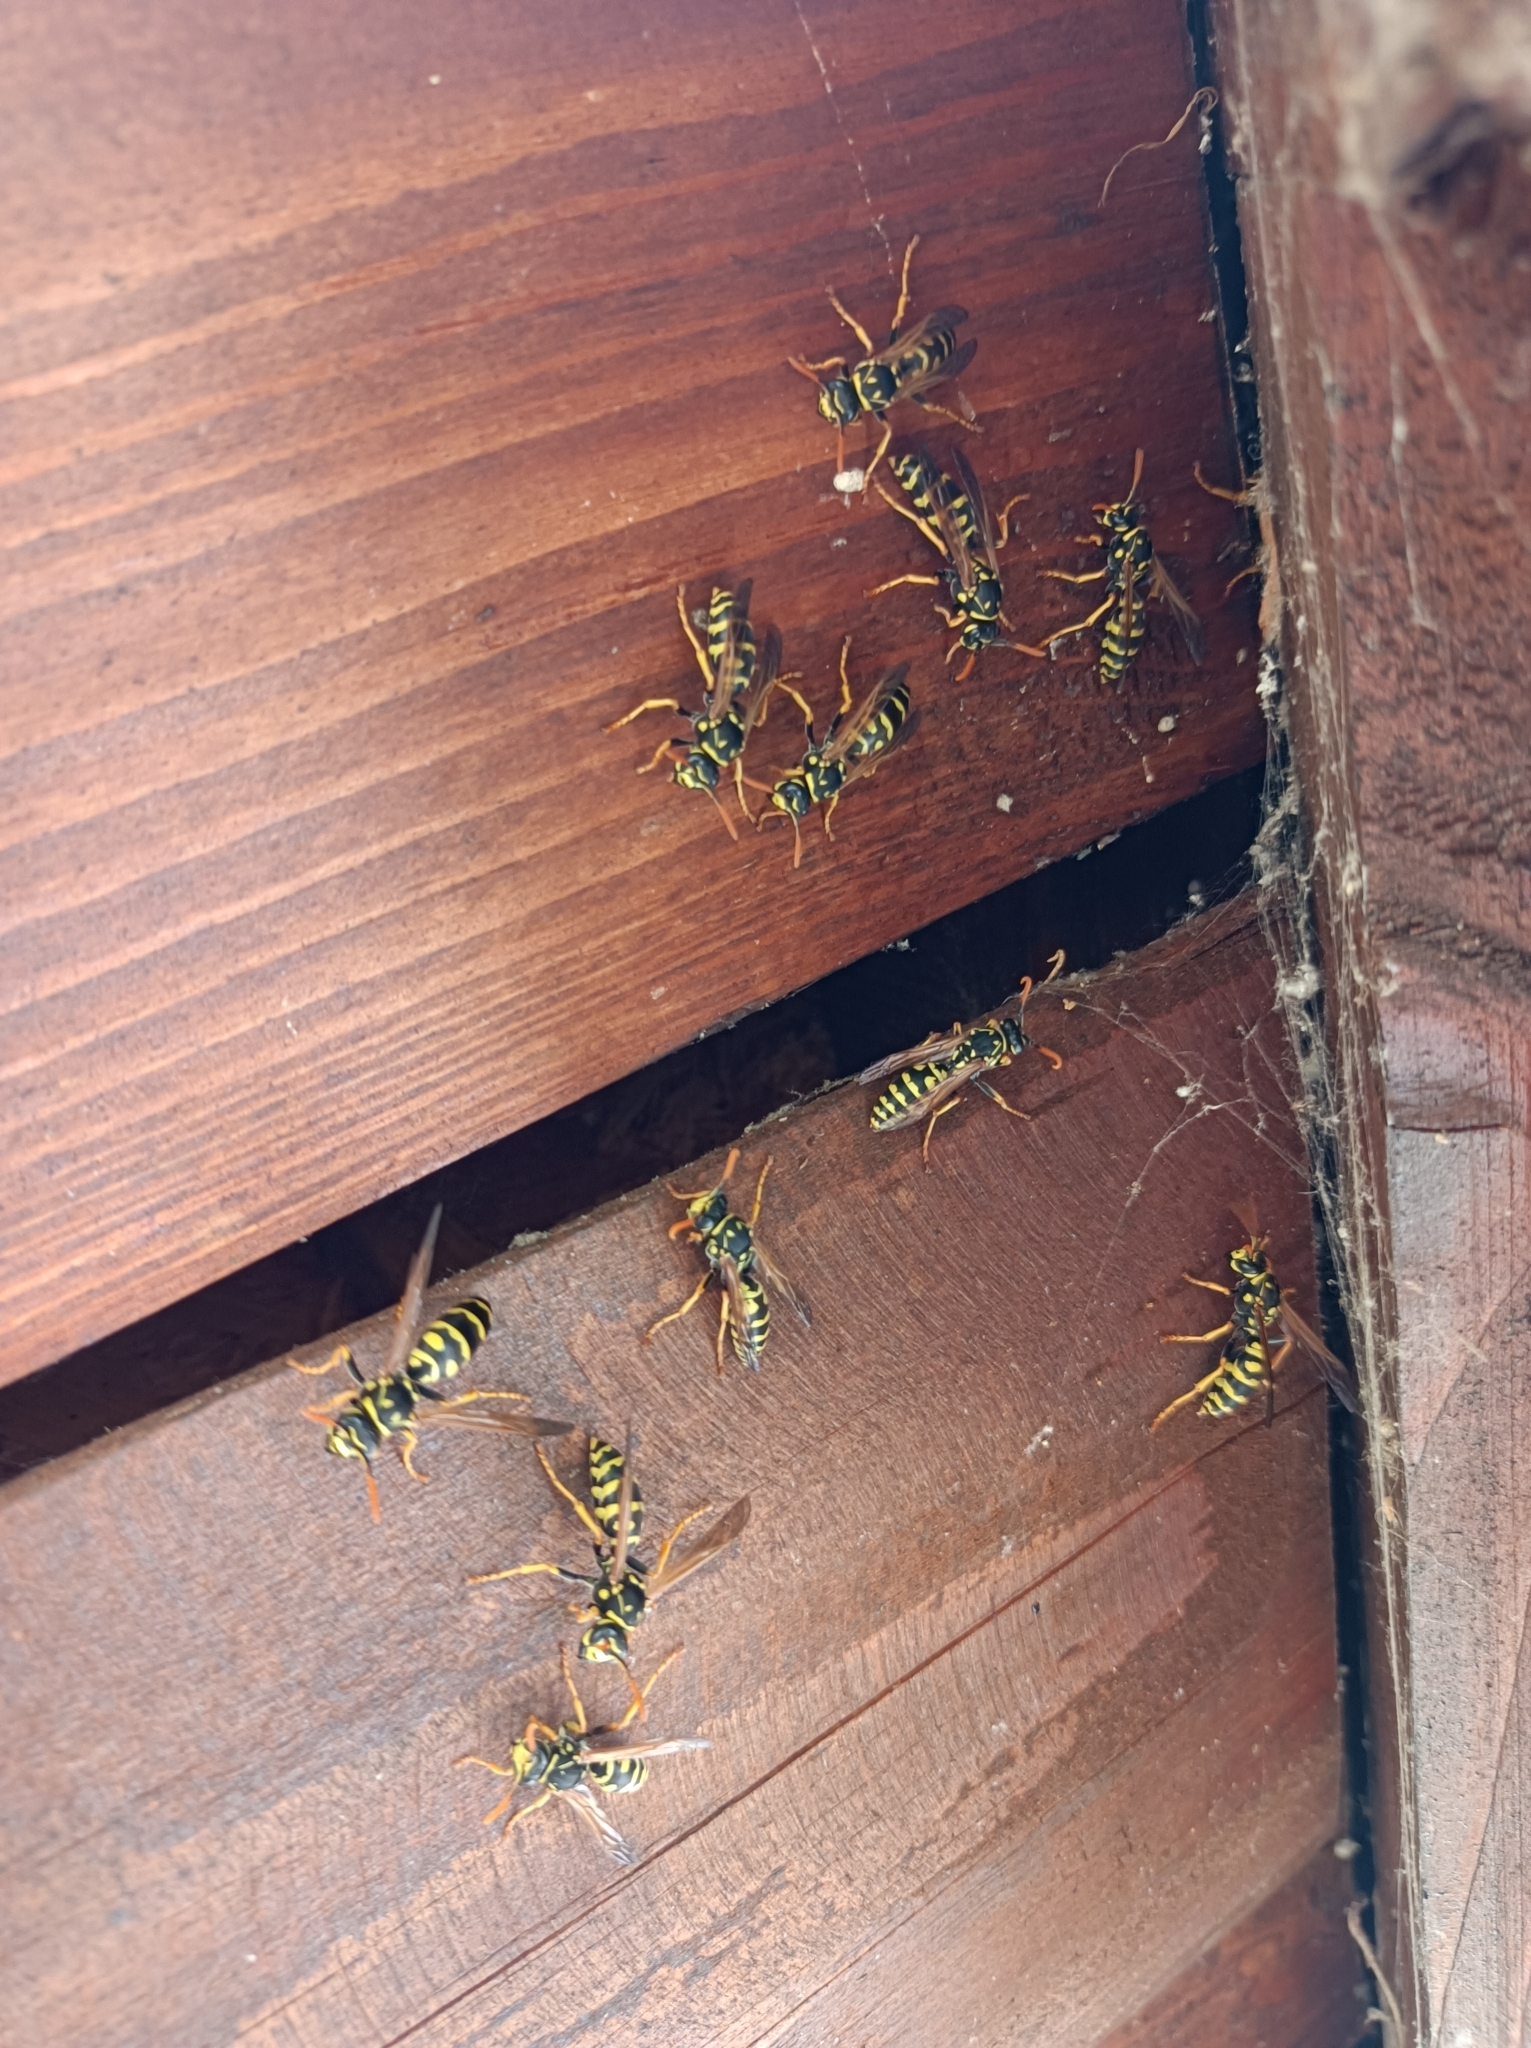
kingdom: Animalia
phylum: Arthropoda
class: Insecta
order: Hymenoptera
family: Eumenidae
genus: Polistes
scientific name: Polistes dominula
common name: Paper wasp
